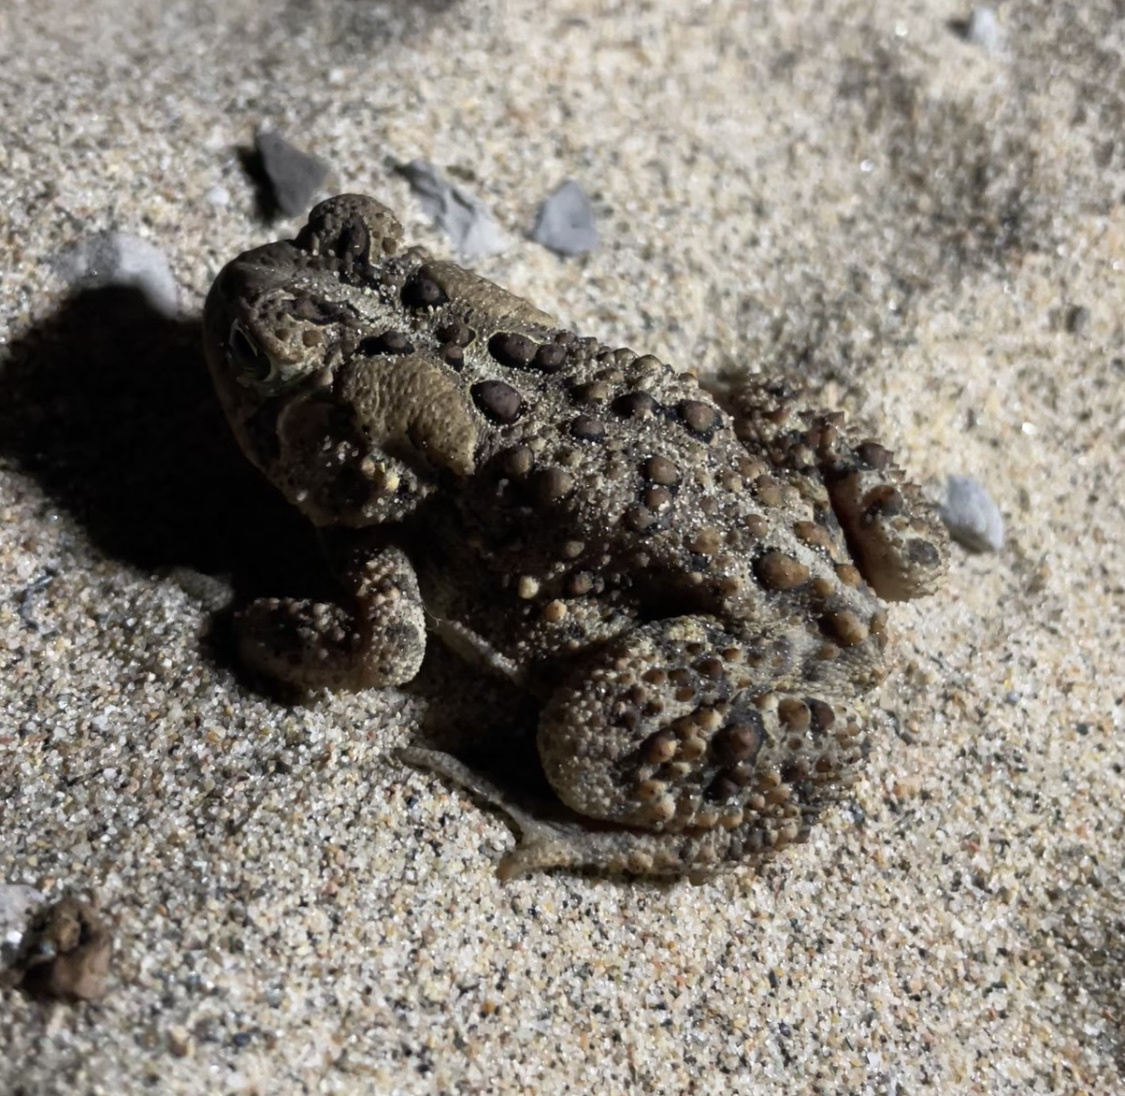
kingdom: Animalia
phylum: Chordata
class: Amphibia
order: Anura
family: Bufonidae
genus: Anaxyrus
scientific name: Anaxyrus americanus
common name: American toad
